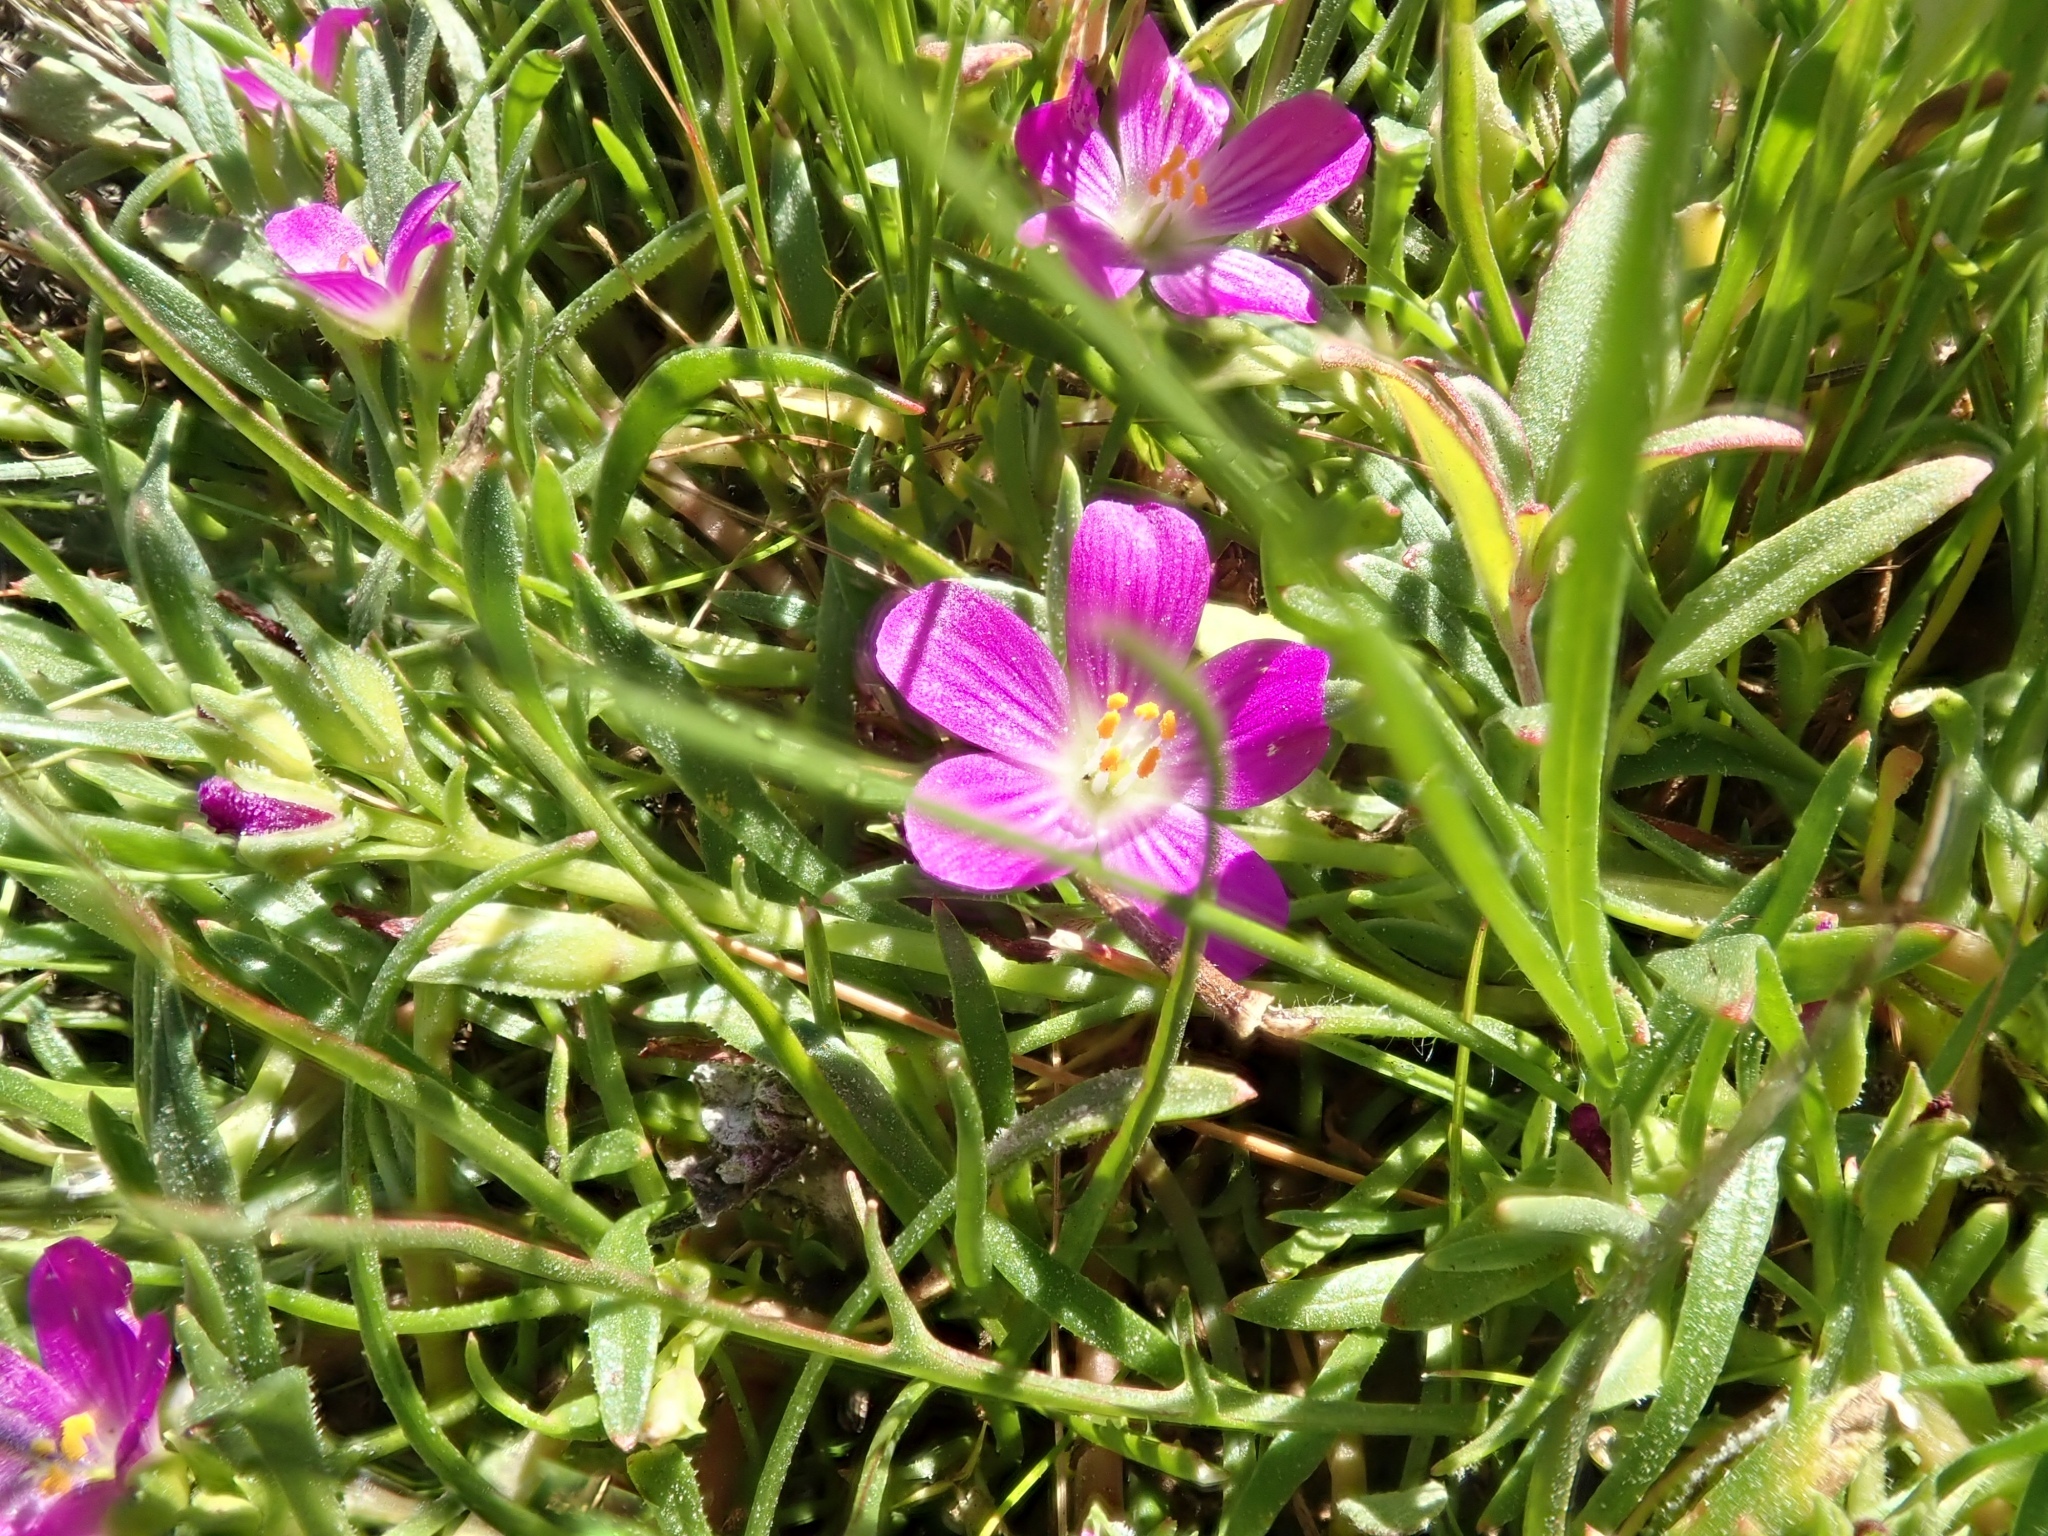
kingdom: Plantae
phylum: Tracheophyta
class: Magnoliopsida
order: Caryophyllales
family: Montiaceae
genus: Calandrinia
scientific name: Calandrinia menziesii
